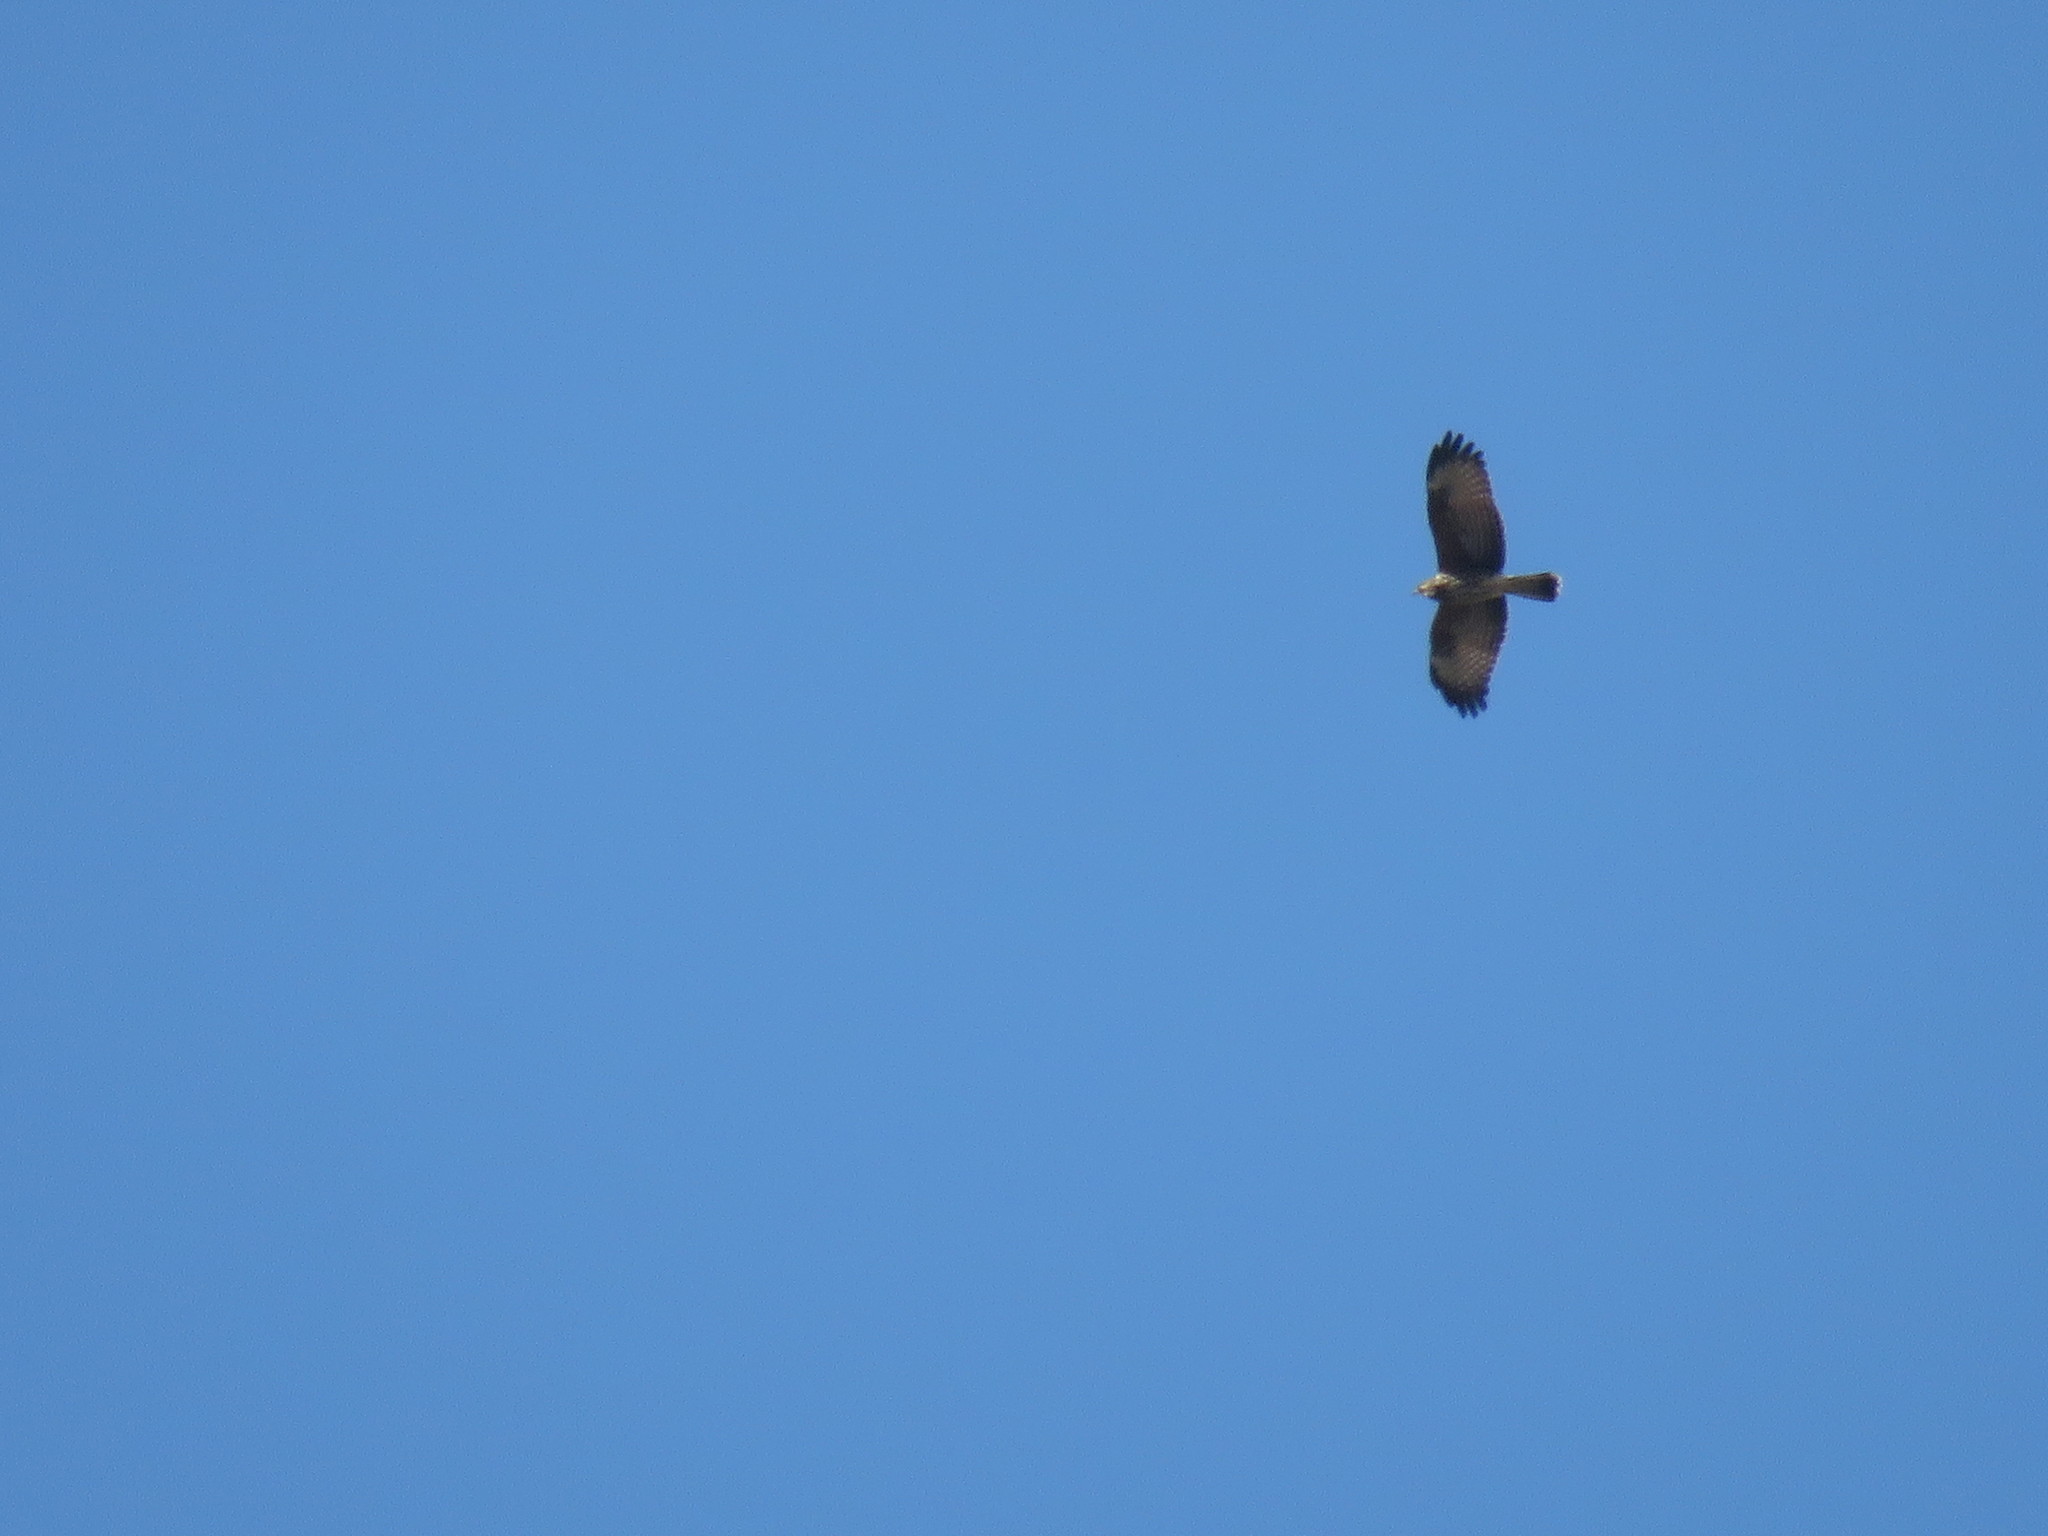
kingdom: Animalia
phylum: Chordata
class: Aves
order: Accipitriformes
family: Accipitridae
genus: Parabuteo
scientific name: Parabuteo unicinctus
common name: Harris's hawk
